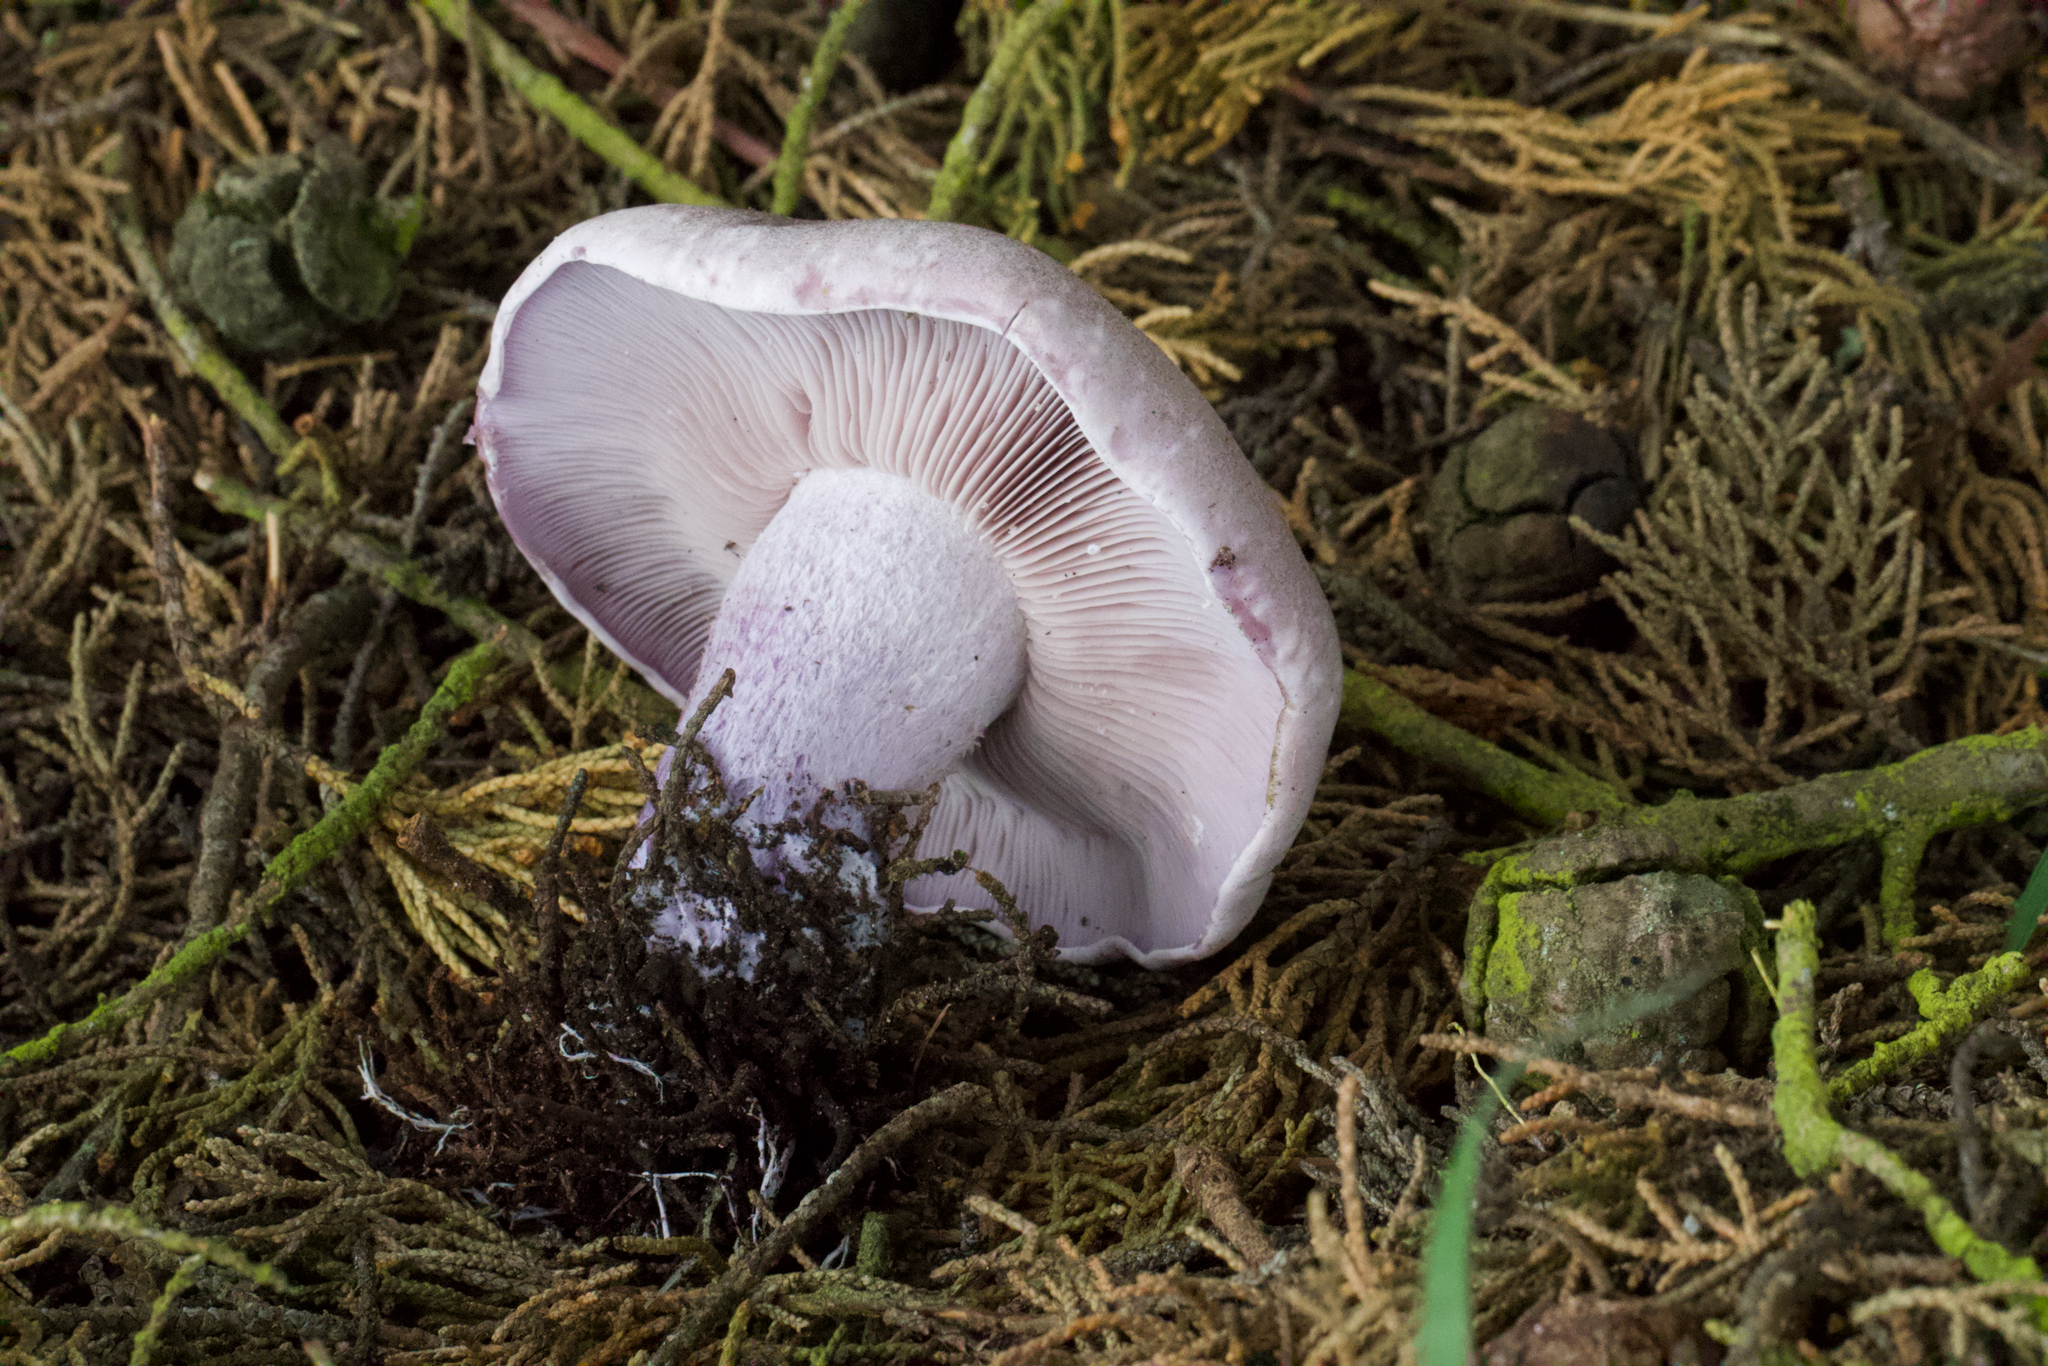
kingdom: Fungi
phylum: Basidiomycota
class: Agaricomycetes
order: Agaricales
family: Tricholomataceae
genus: Collybia
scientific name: Collybia
